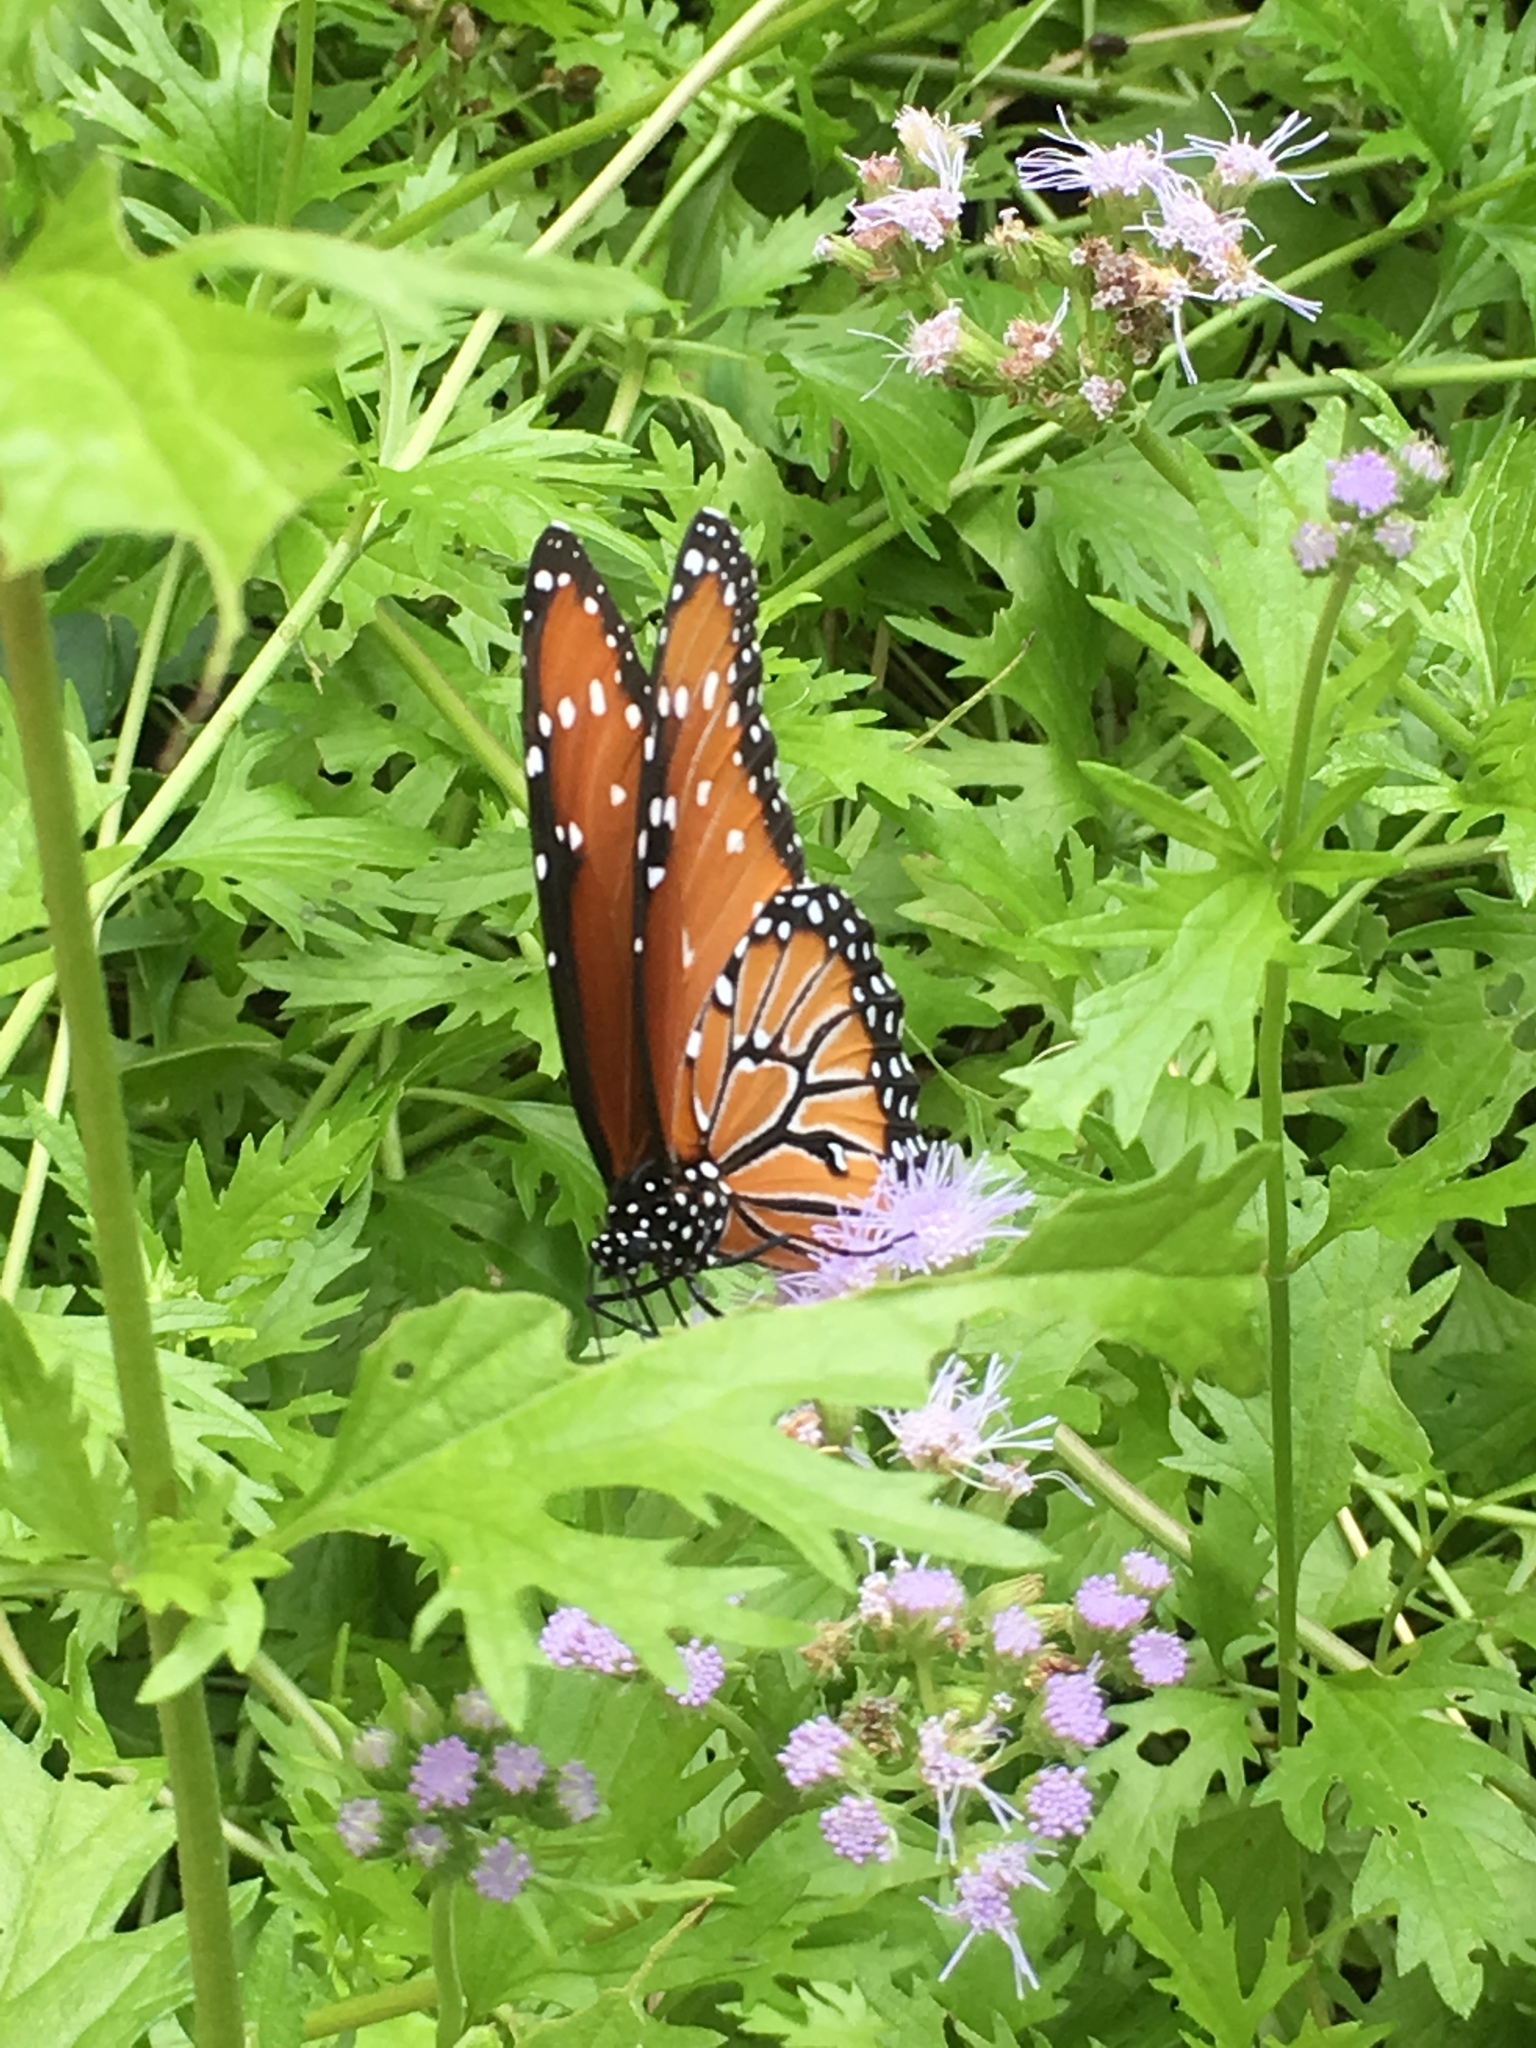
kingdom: Animalia
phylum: Arthropoda
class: Insecta
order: Lepidoptera
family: Nymphalidae
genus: Danaus
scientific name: Danaus gilippus
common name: Queen
